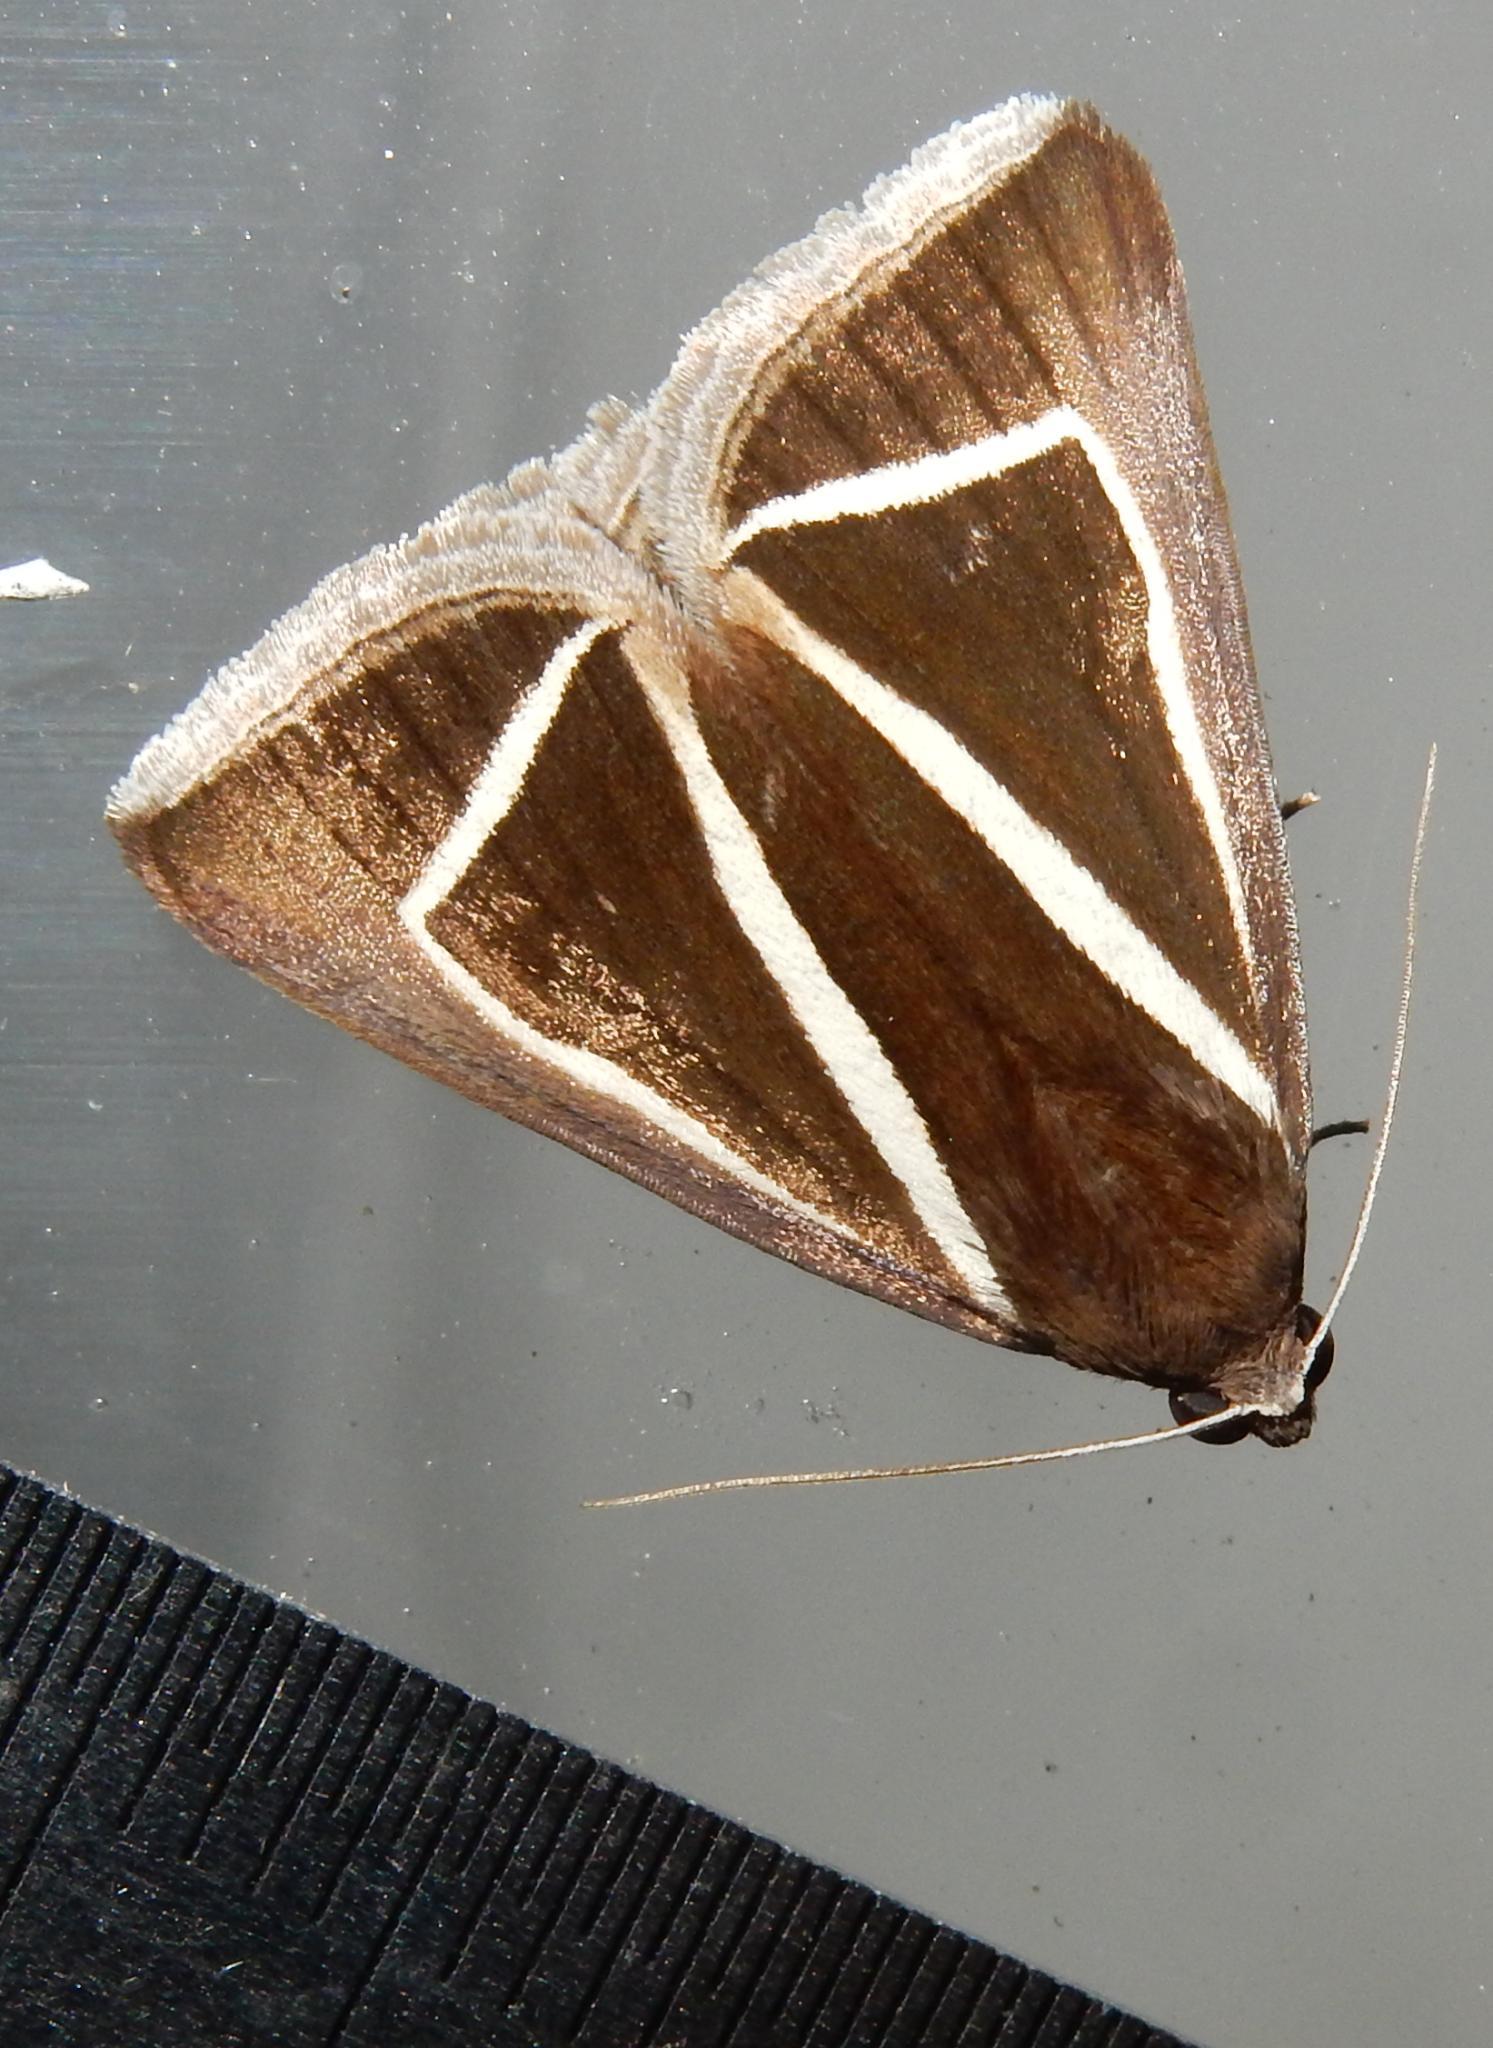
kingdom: Animalia
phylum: Arthropoda
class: Insecta
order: Lepidoptera
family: Erebidae
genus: Chalciope
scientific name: Chalciope delta
